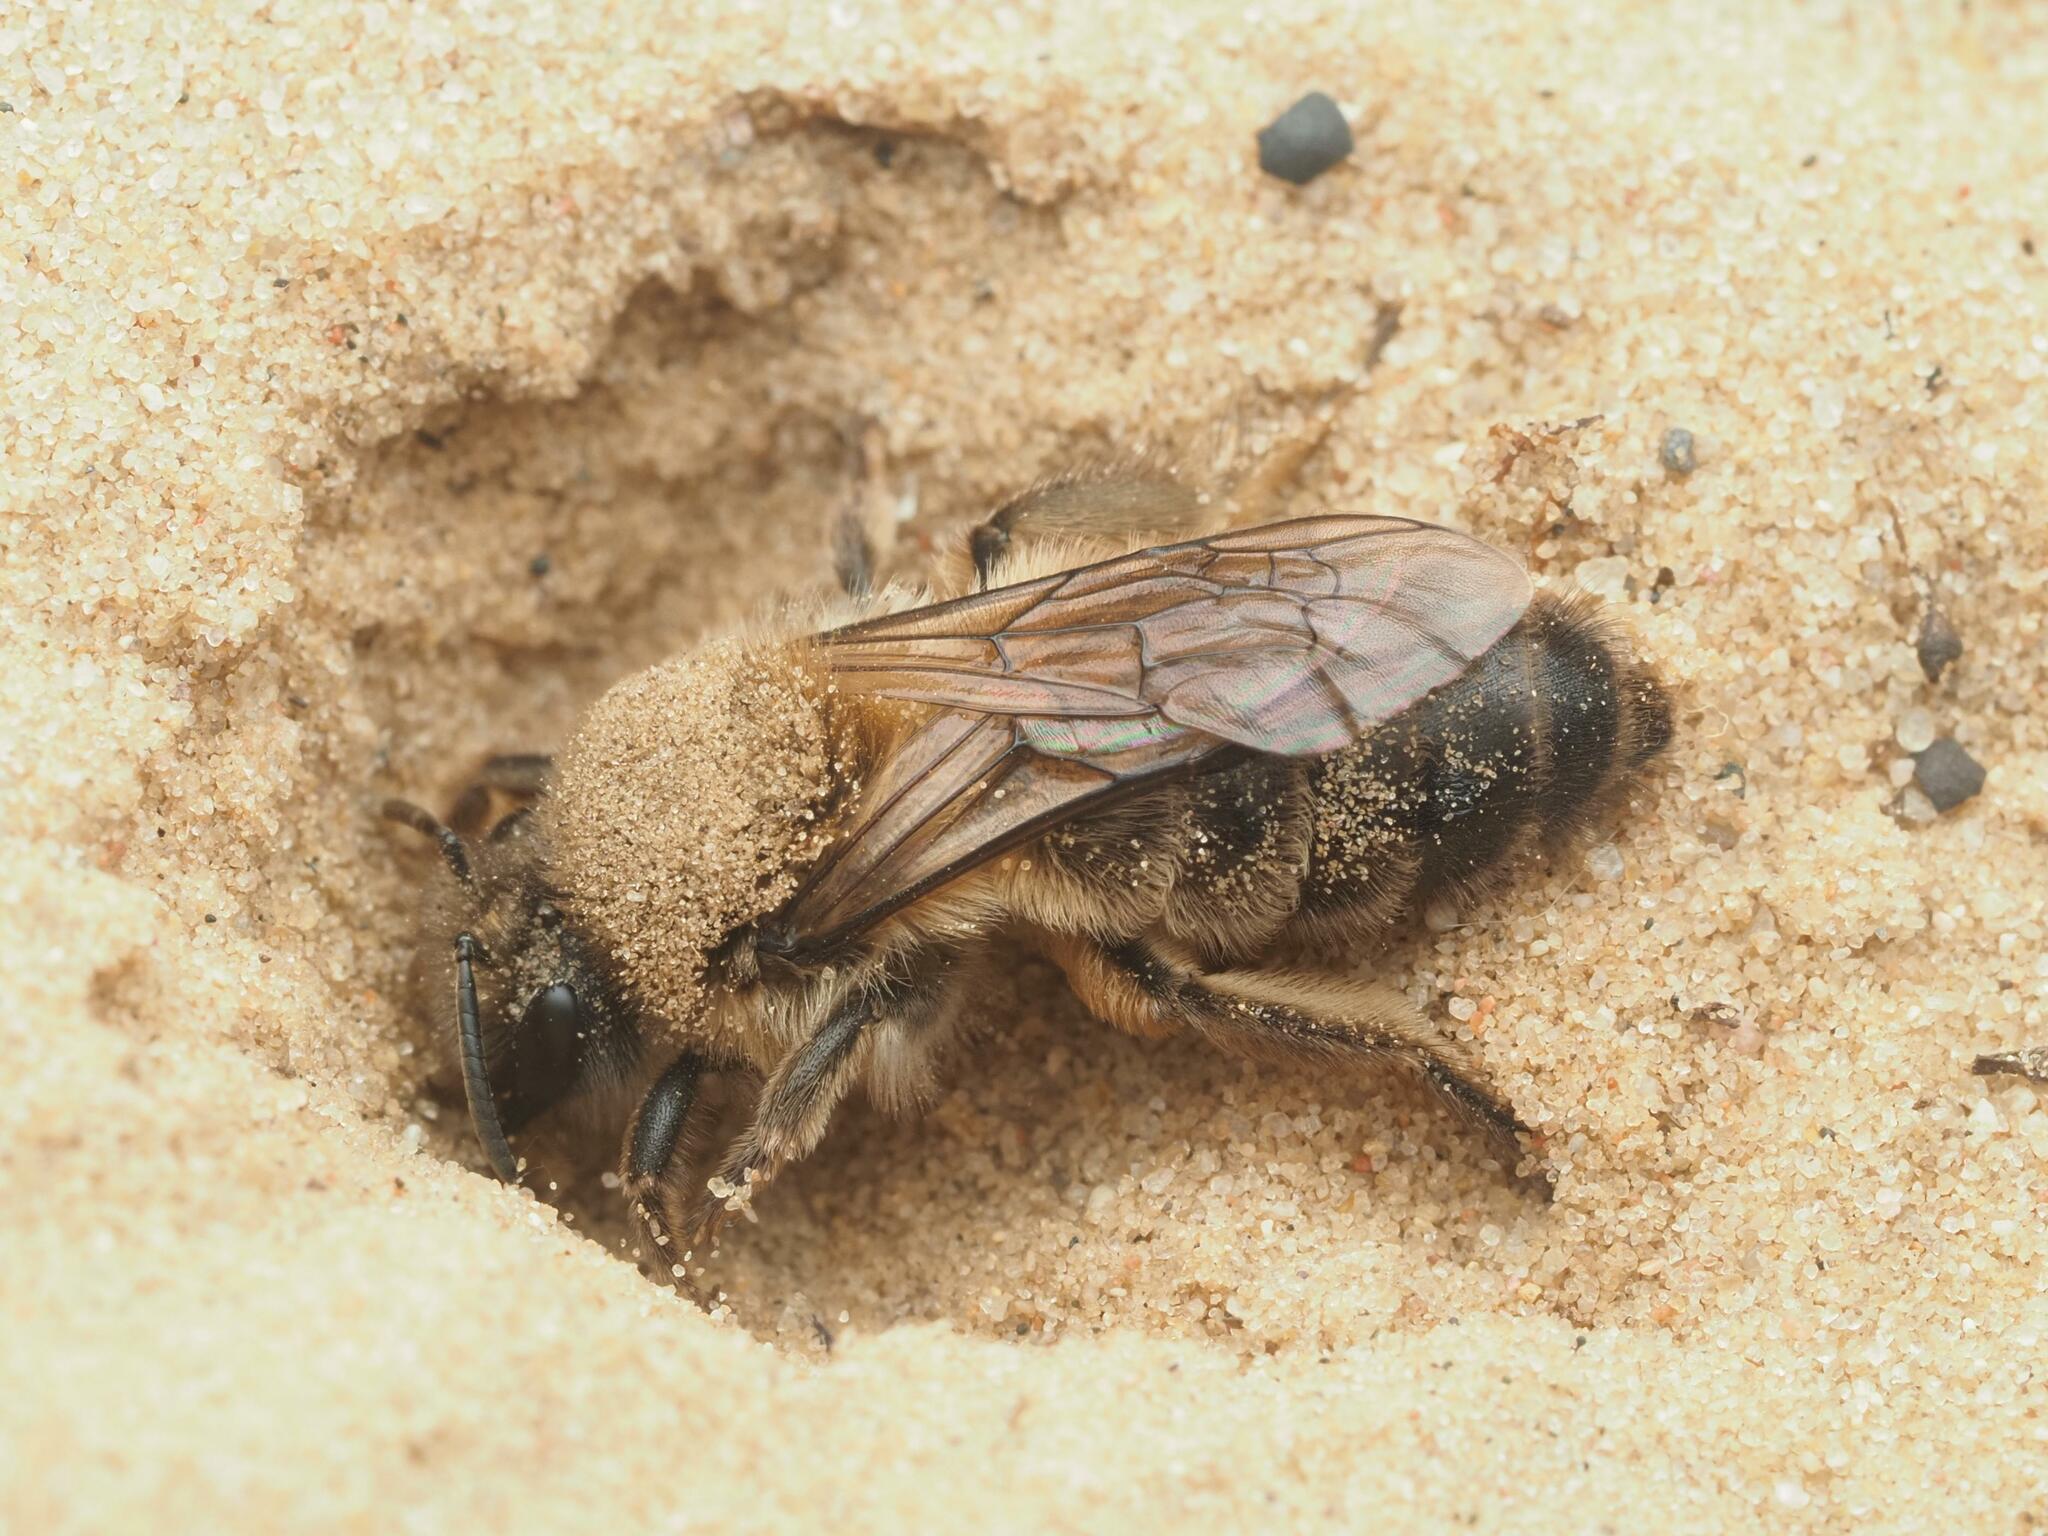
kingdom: Animalia
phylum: Arthropoda
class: Insecta
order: Hymenoptera
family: Colletidae
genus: Colletes
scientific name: Colletes cunicularius
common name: Early colletes
